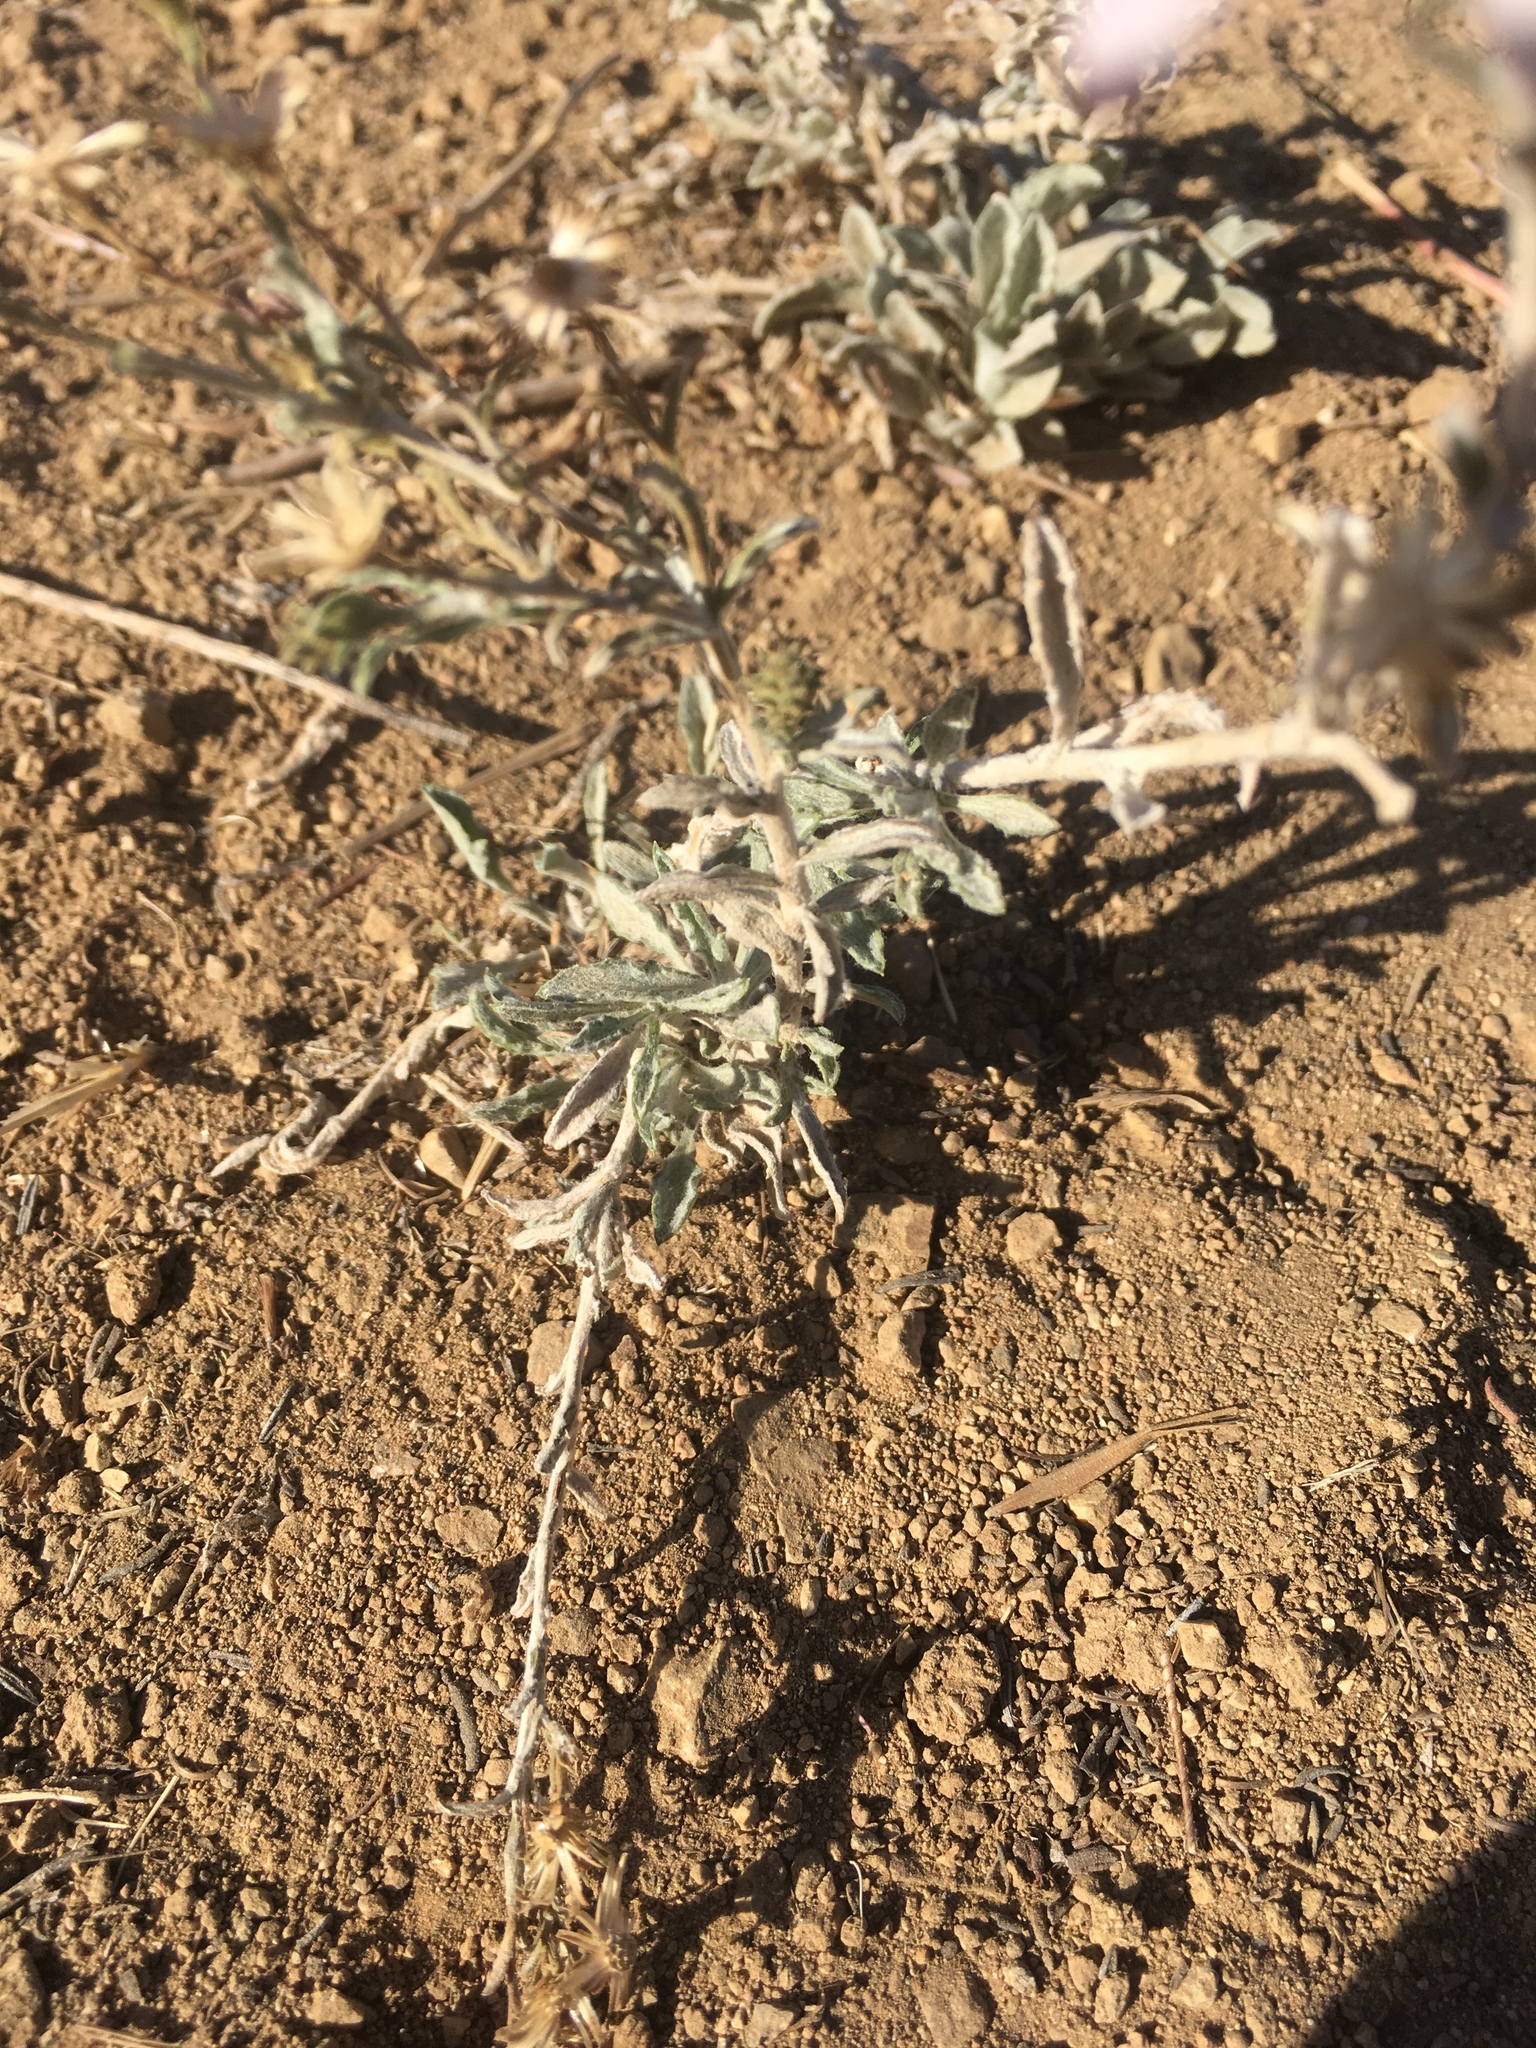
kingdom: Plantae
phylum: Tracheophyta
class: Magnoliopsida
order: Asterales
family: Asteraceae
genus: Corethrogyne
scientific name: Corethrogyne filaginifolia
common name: Sand-aster
